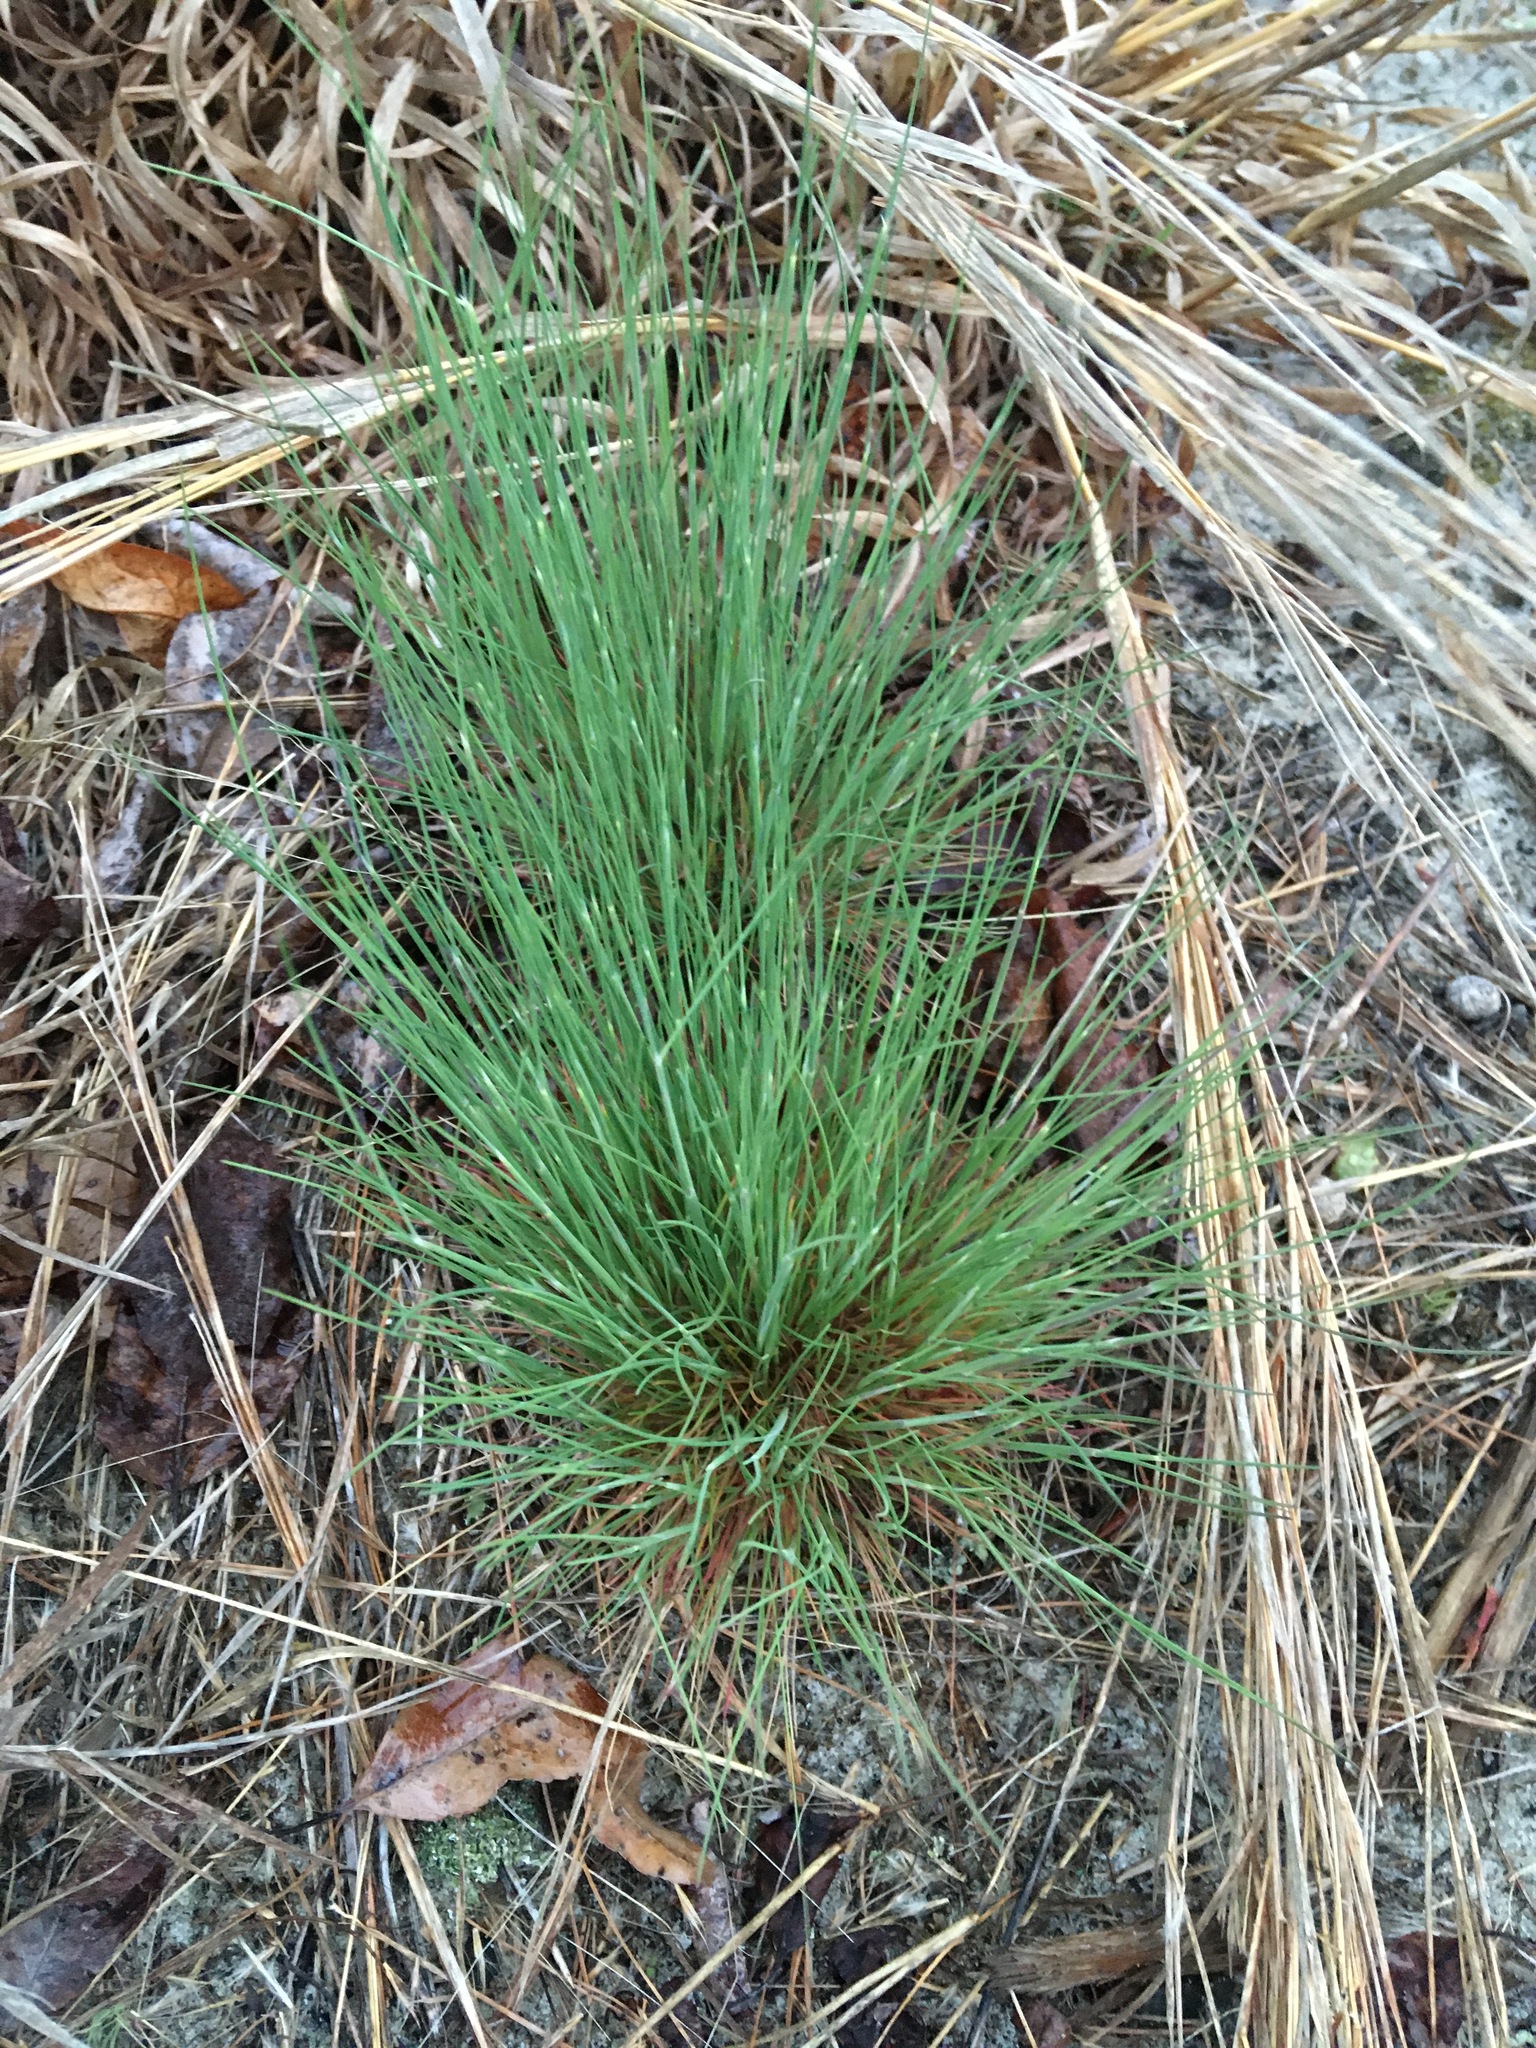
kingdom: Plantae
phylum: Tracheophyta
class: Liliopsida
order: Poales
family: Poaceae
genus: Corynephorus
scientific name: Corynephorus canescens
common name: Grey hair-grass
